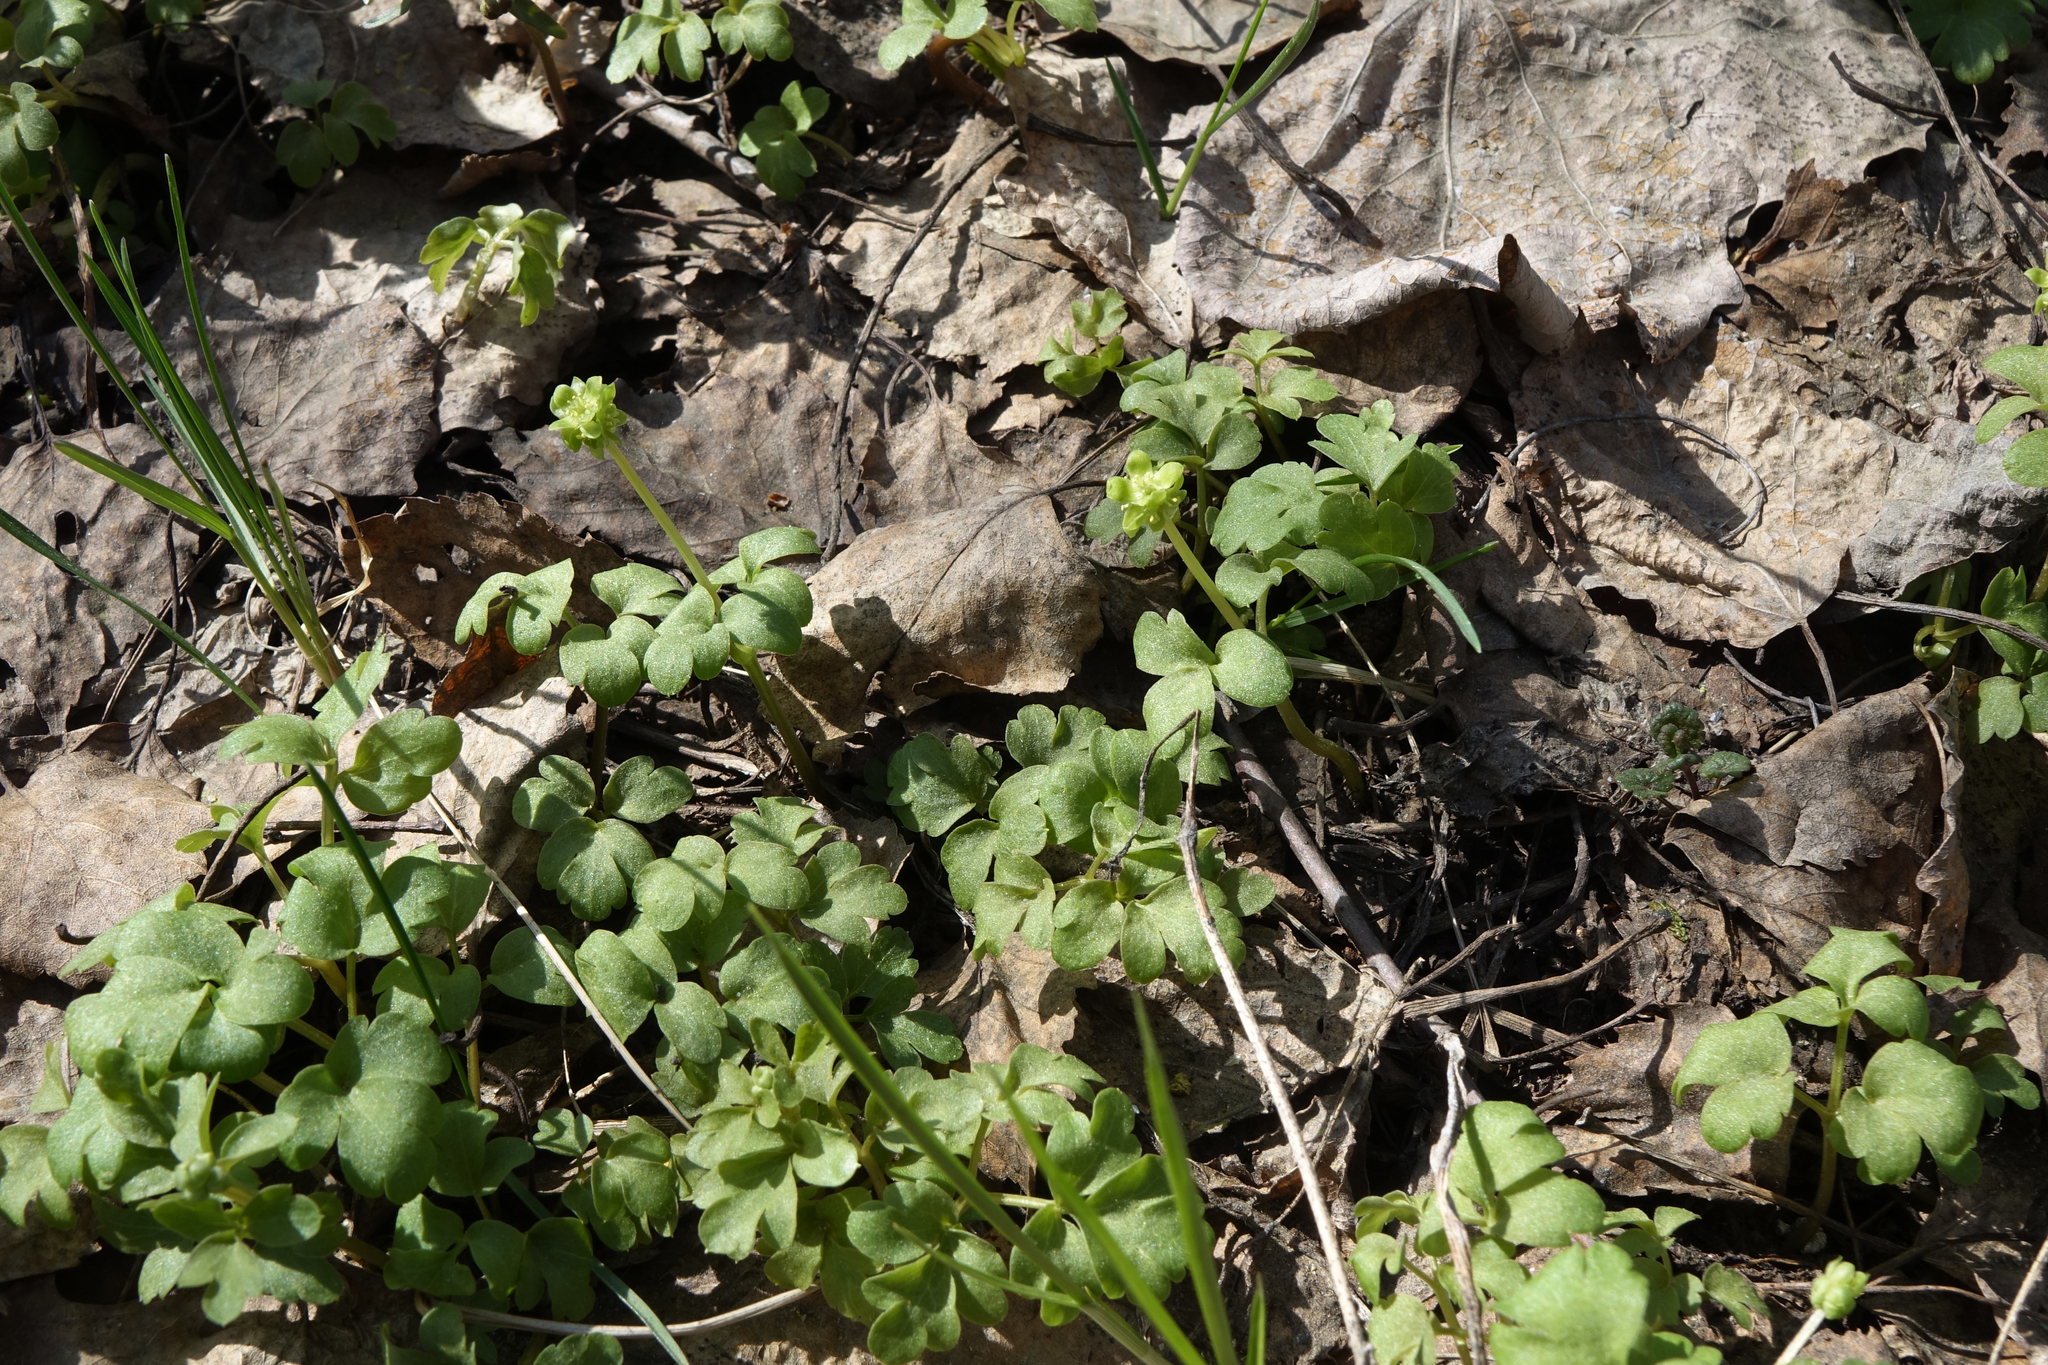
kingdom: Plantae
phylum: Tracheophyta
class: Magnoliopsida
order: Dipsacales
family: Viburnaceae
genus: Adoxa
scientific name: Adoxa moschatellina
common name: Moschatel
